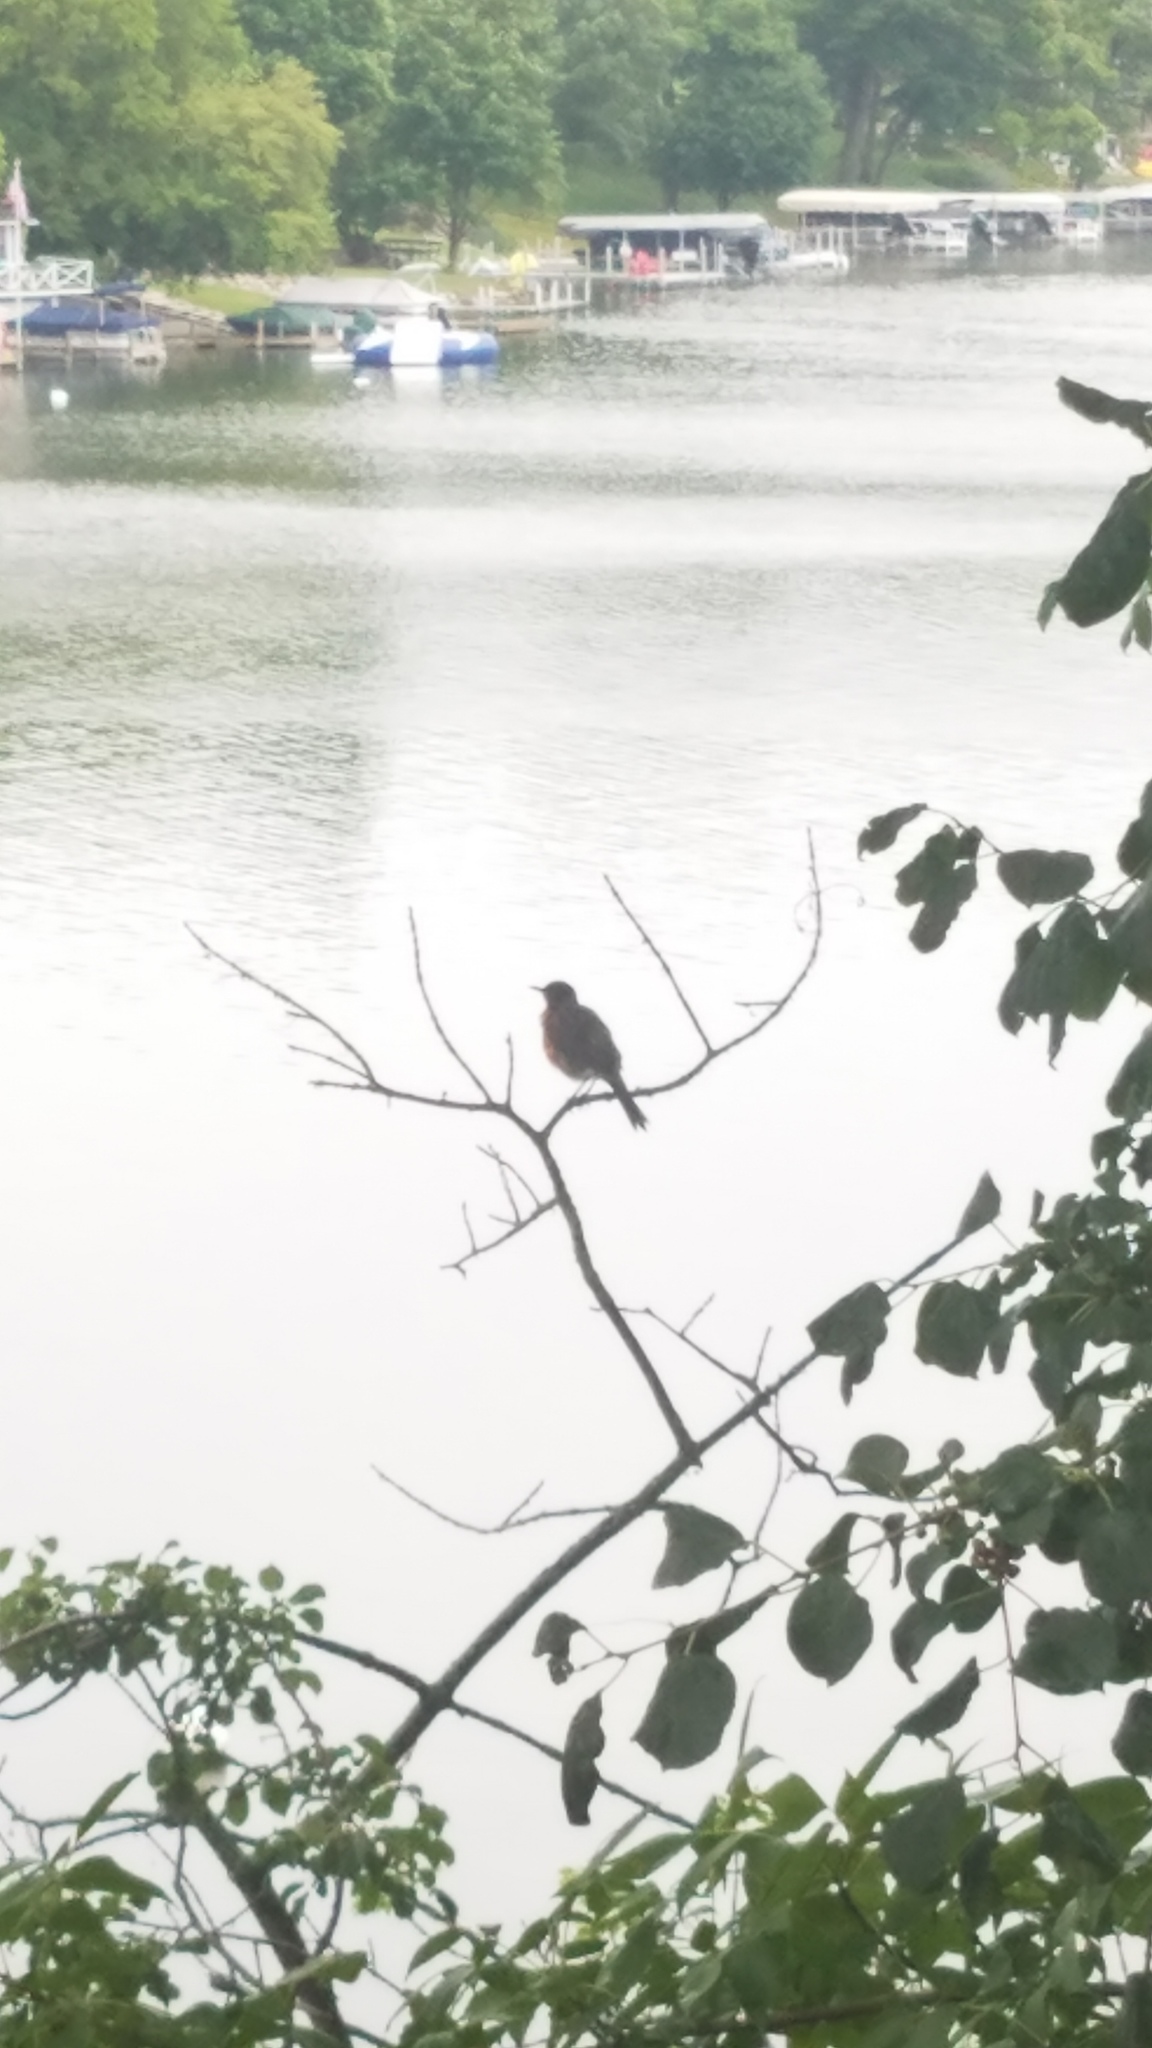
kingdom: Animalia
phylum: Chordata
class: Aves
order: Passeriformes
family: Turdidae
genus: Turdus
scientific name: Turdus migratorius
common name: American robin
